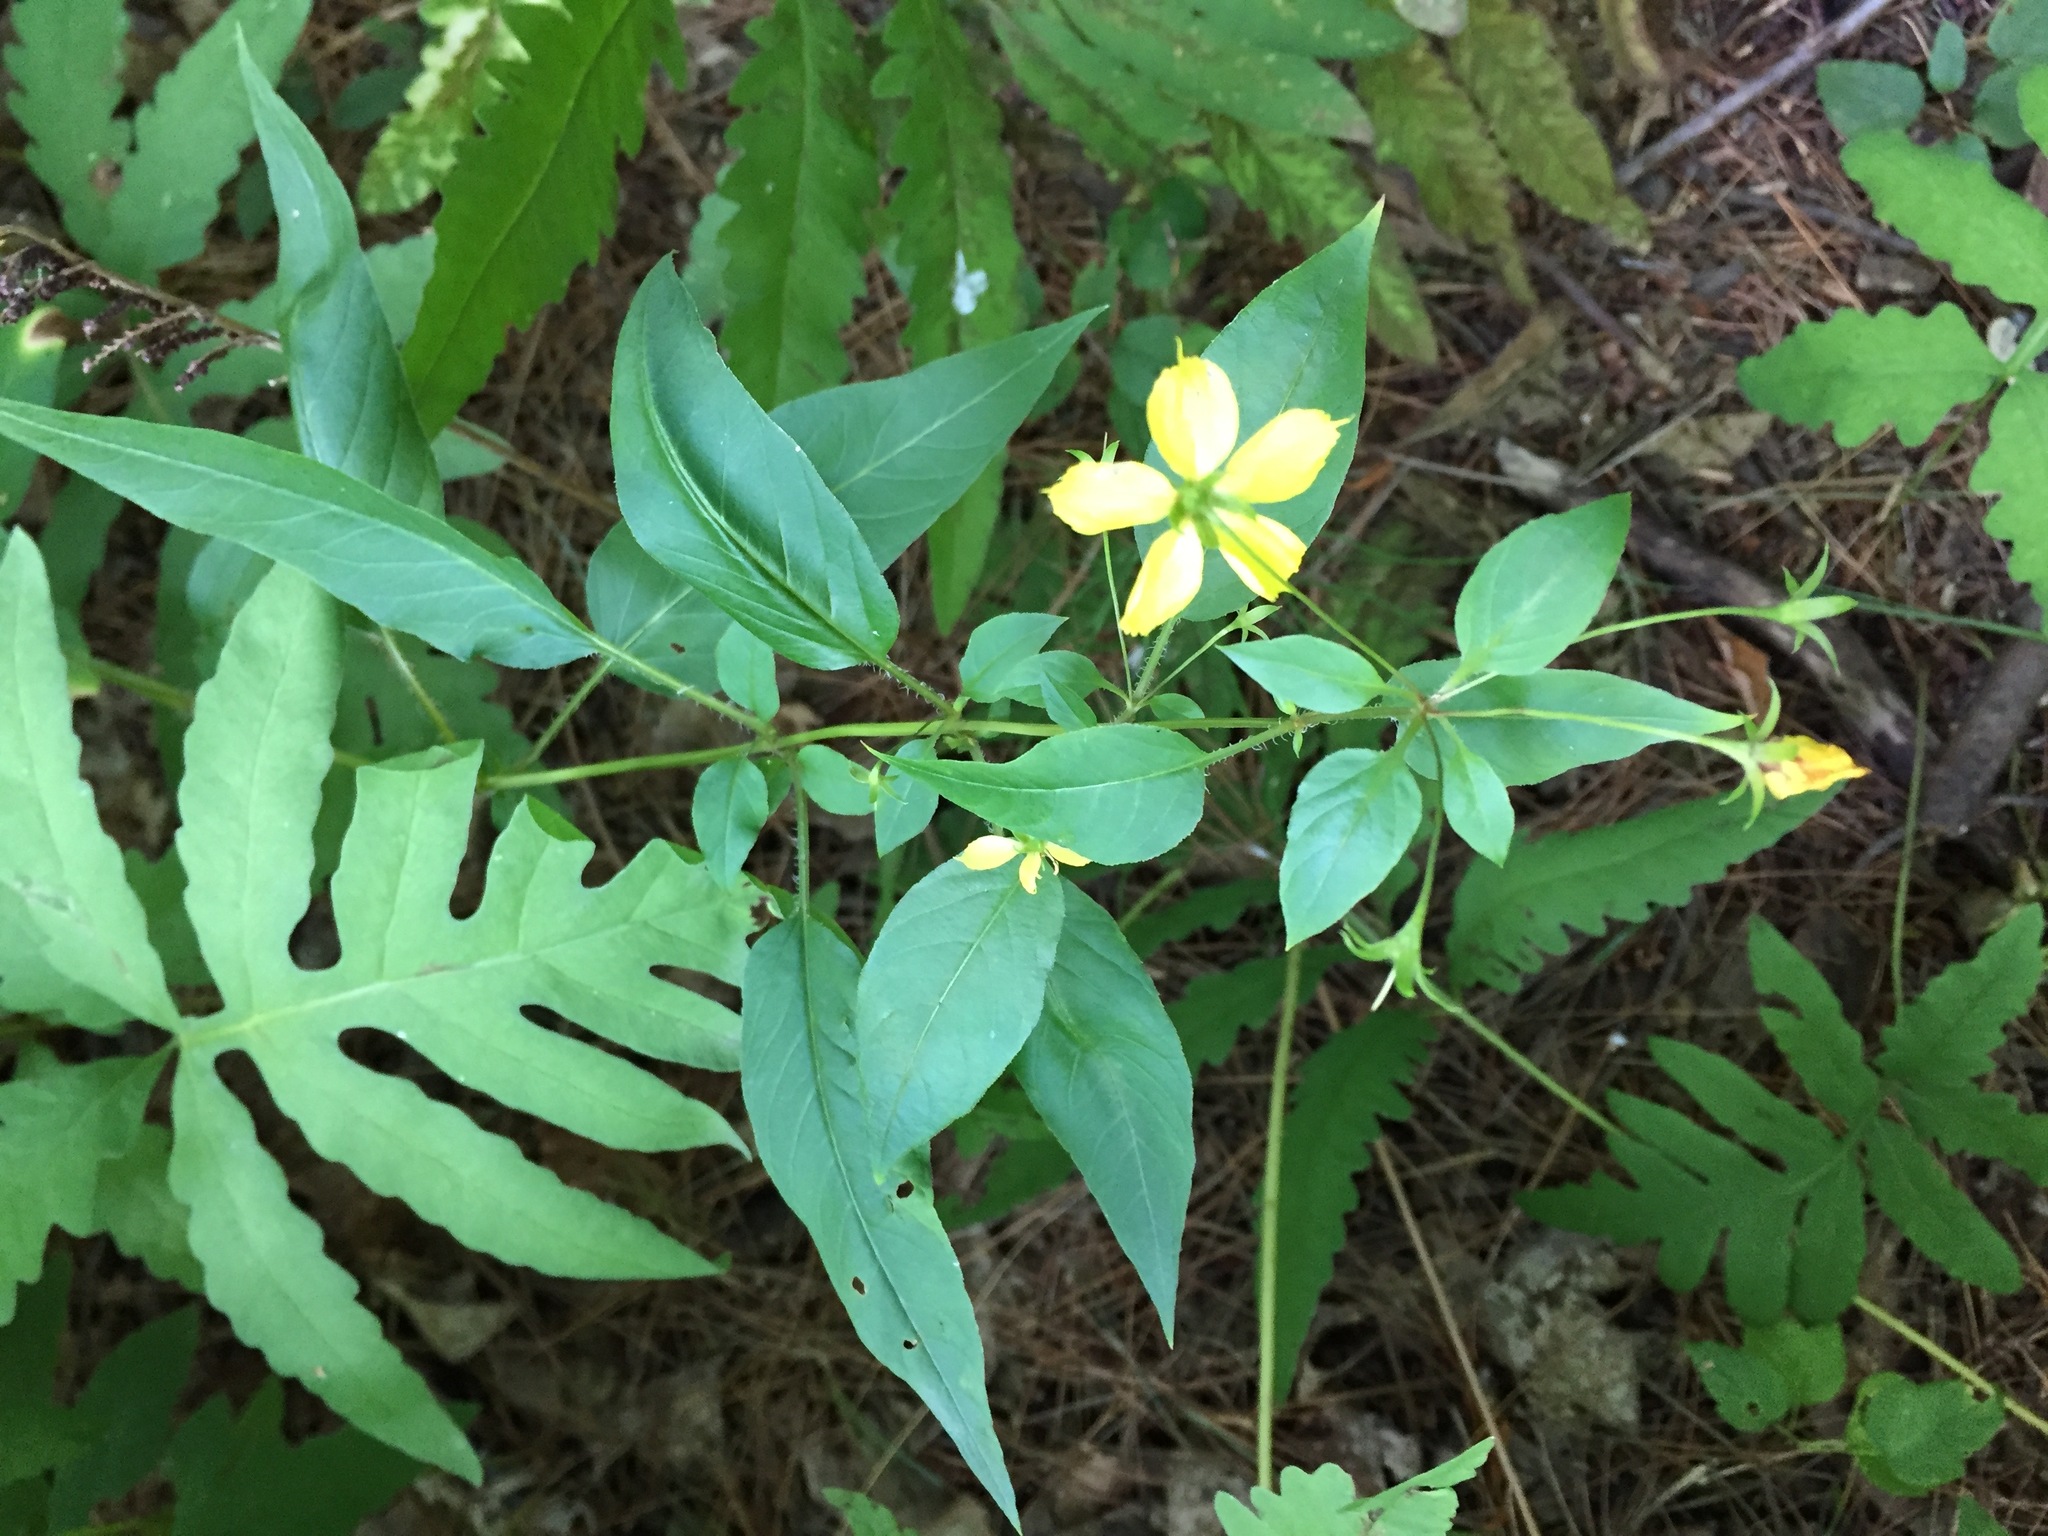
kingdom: Plantae
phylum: Tracheophyta
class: Magnoliopsida
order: Ericales
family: Primulaceae
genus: Lysimachia
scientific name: Lysimachia ciliata
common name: Fringed loosestrife
